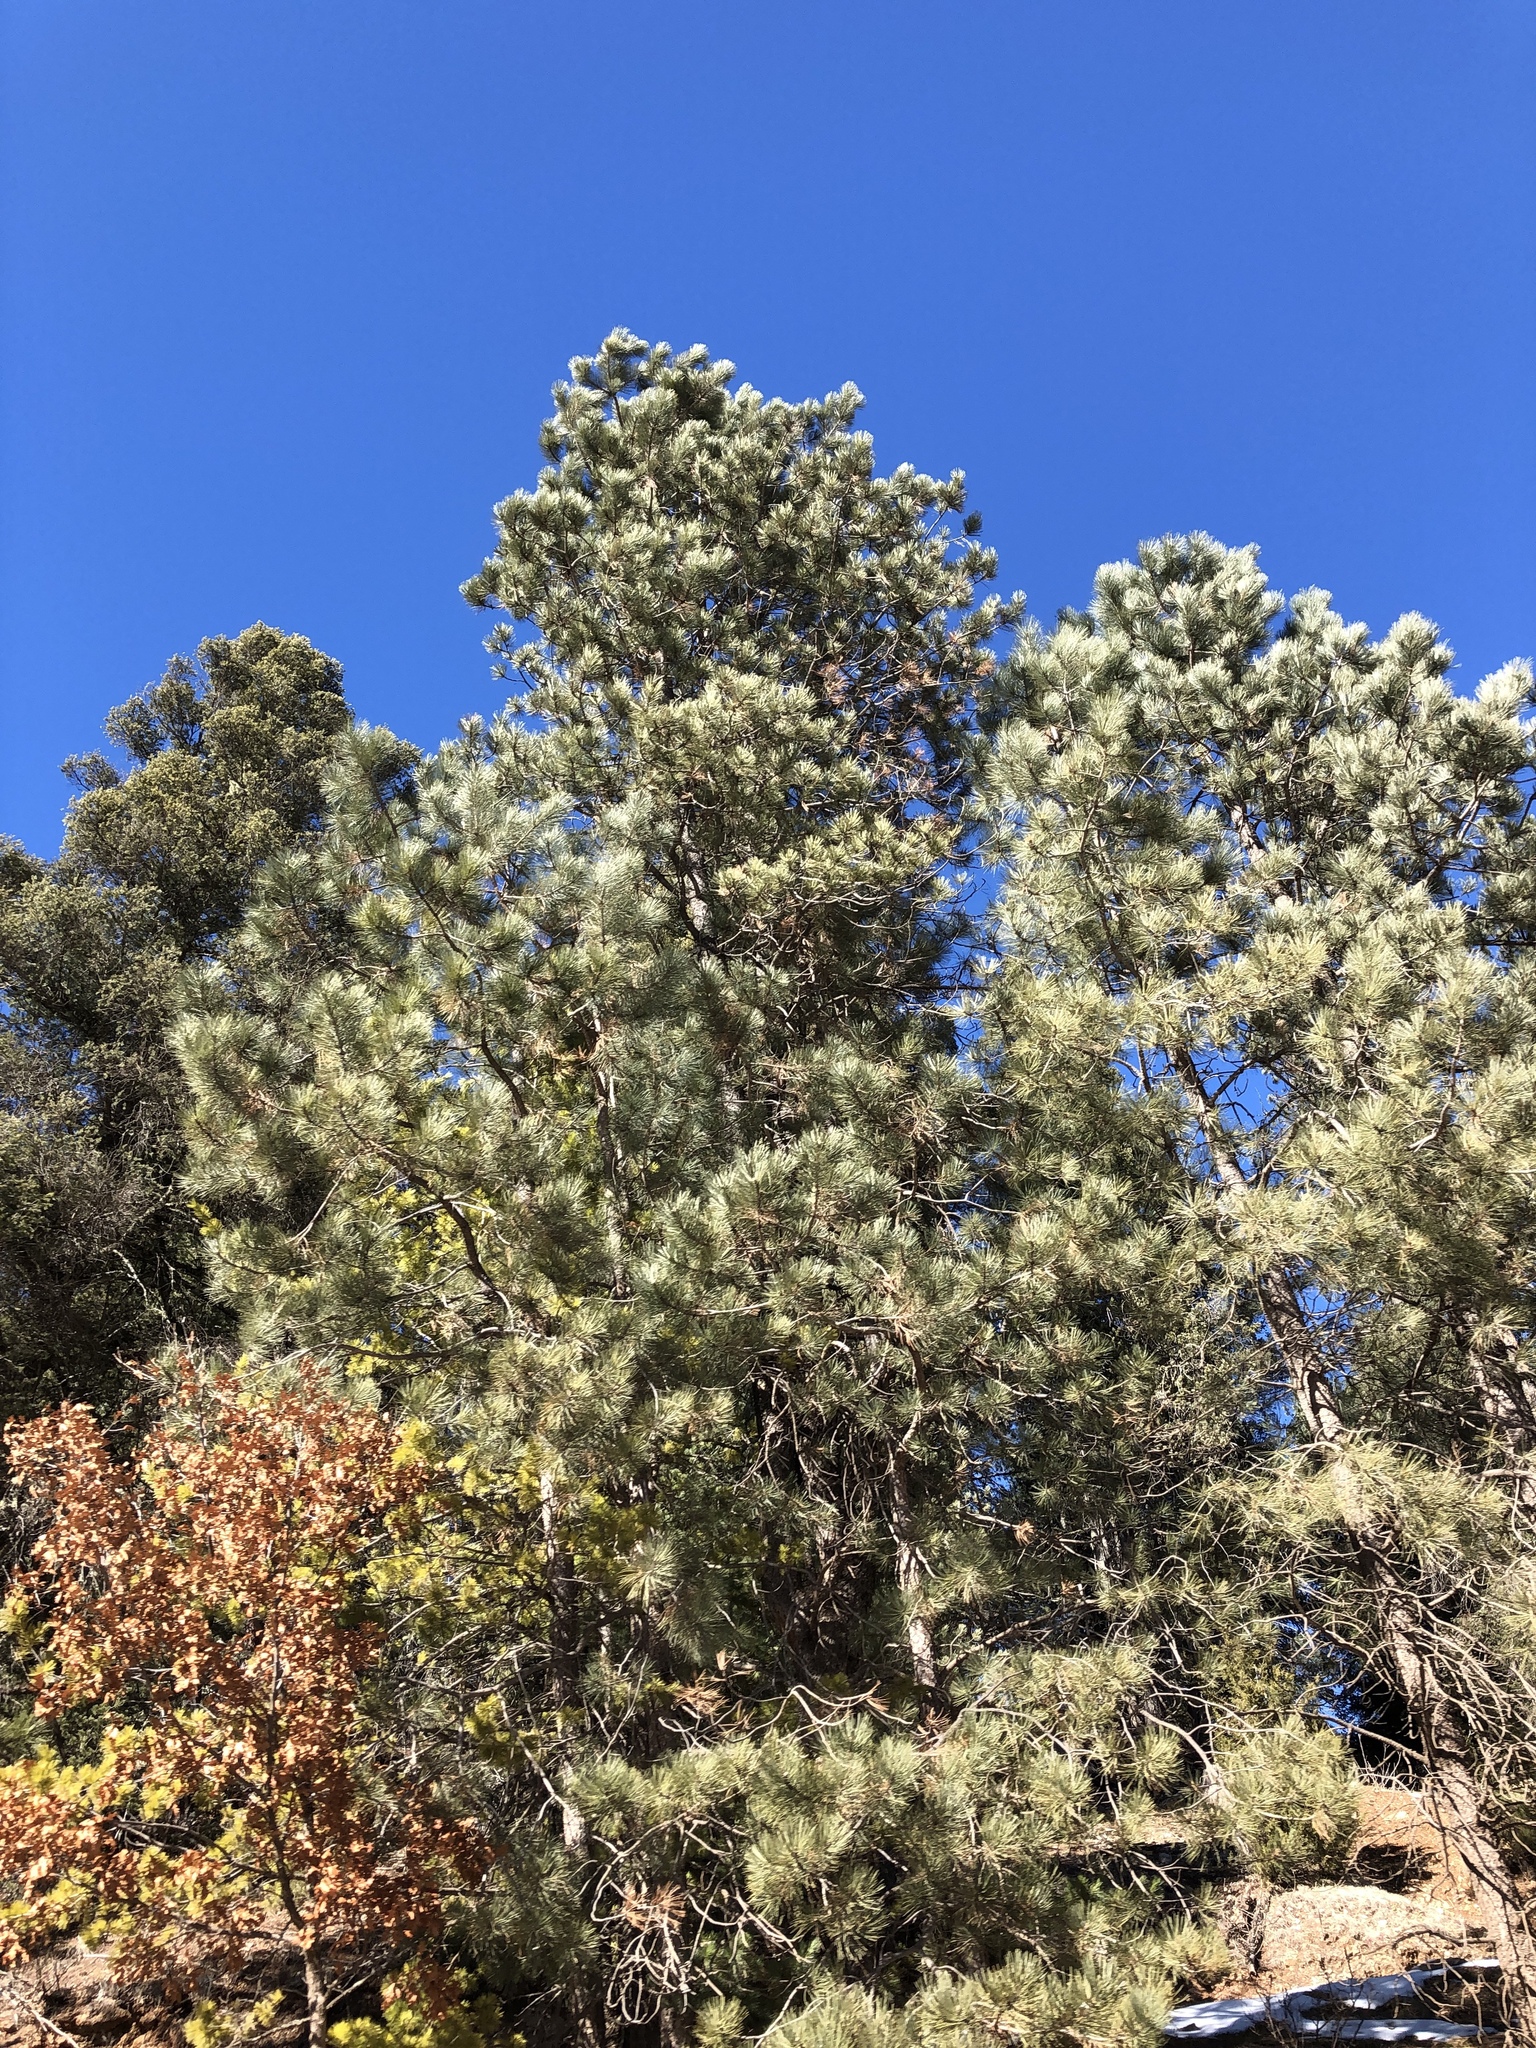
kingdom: Plantae
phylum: Tracheophyta
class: Pinopsida
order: Pinales
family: Pinaceae
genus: Pinus
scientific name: Pinus ponderosa
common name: Western yellow-pine
